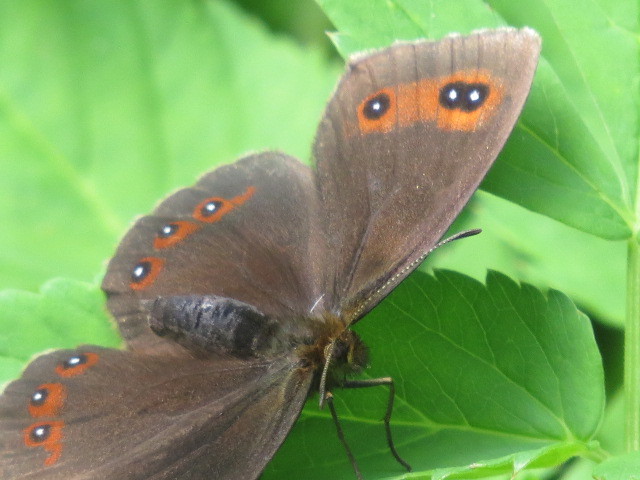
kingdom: Animalia
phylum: Arthropoda
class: Insecta
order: Lepidoptera
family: Nymphalidae
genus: Erebia
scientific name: Erebia aethiops
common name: Scotch argus
